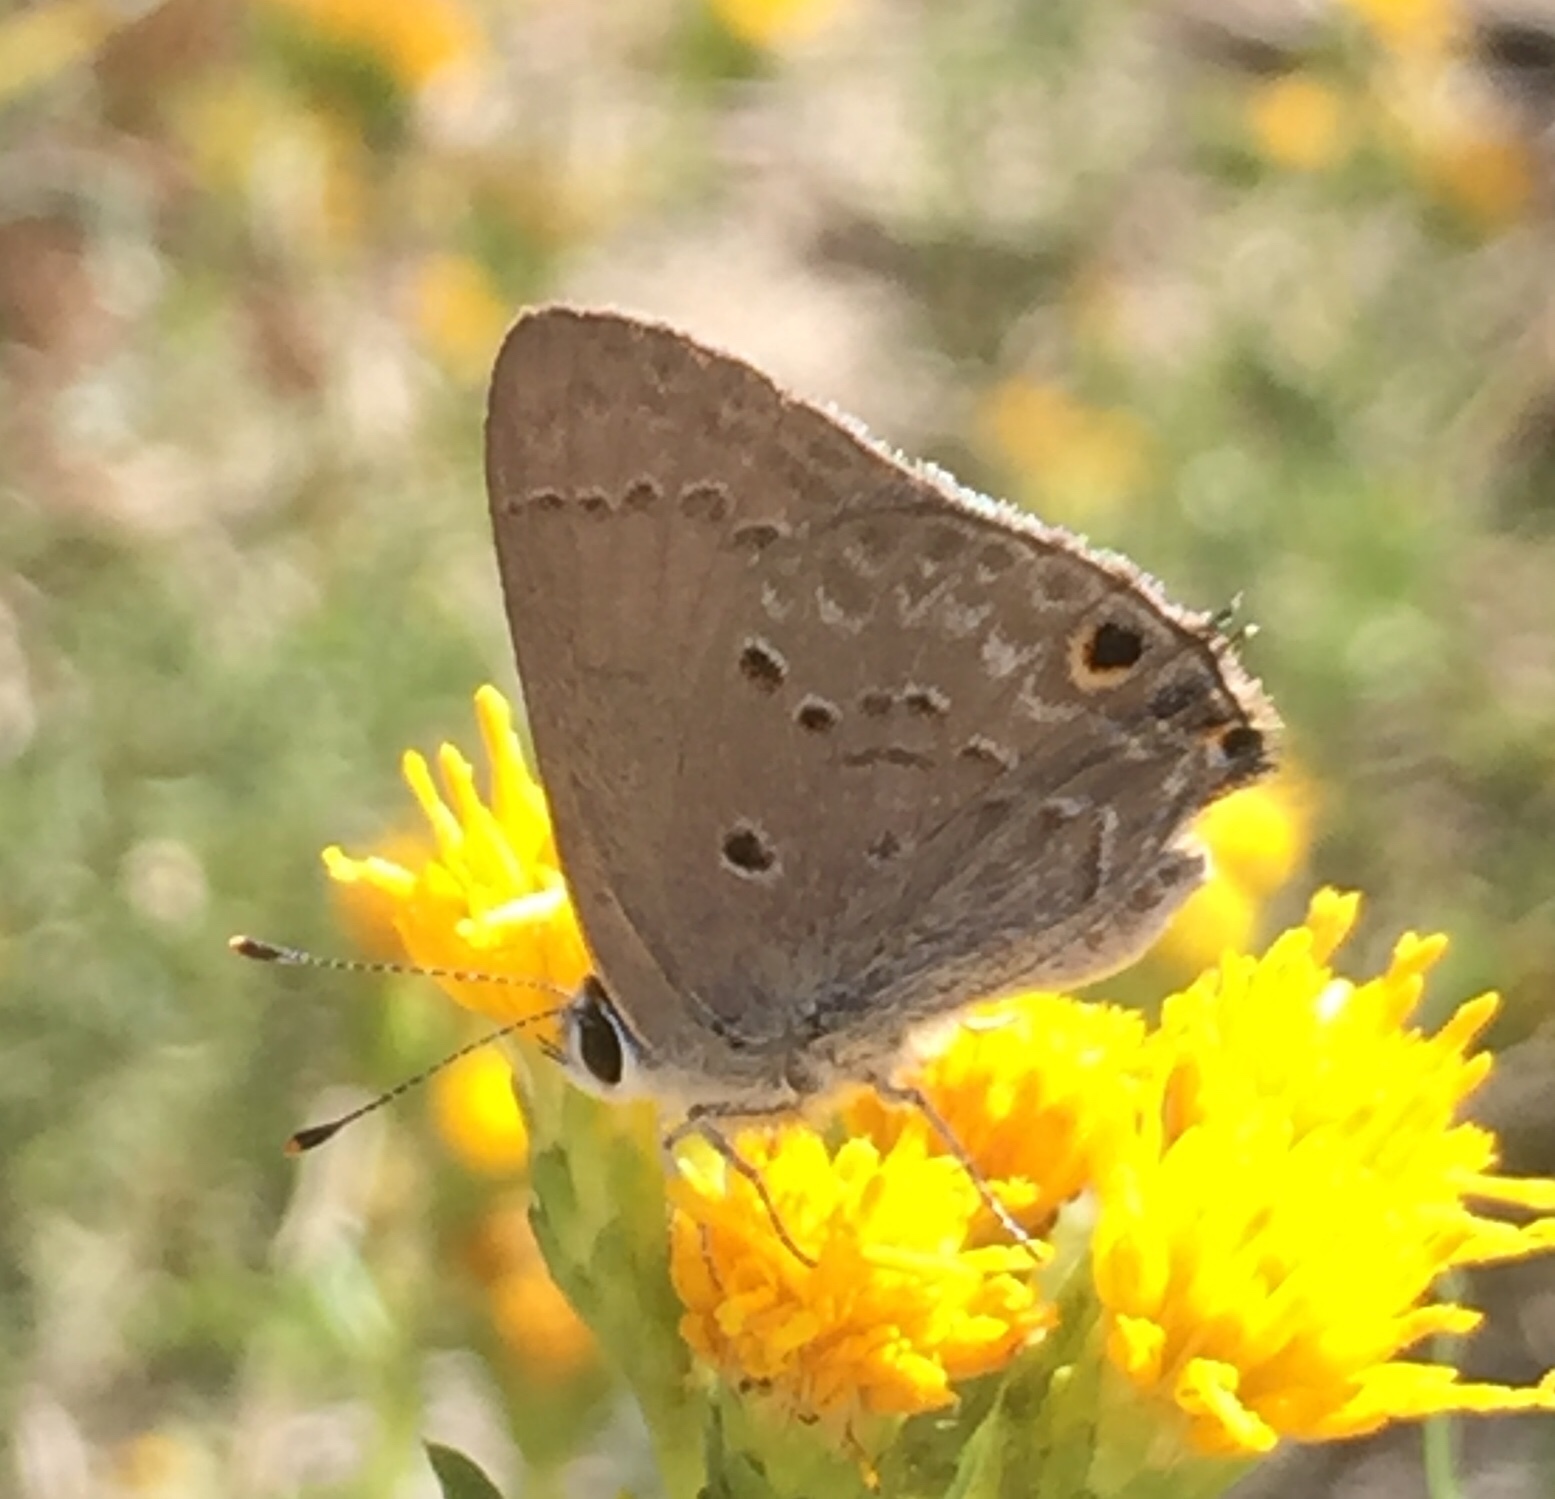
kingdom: Animalia
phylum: Arthropoda
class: Insecta
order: Lepidoptera
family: Lycaenidae
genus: Callicista
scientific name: Callicista columella
